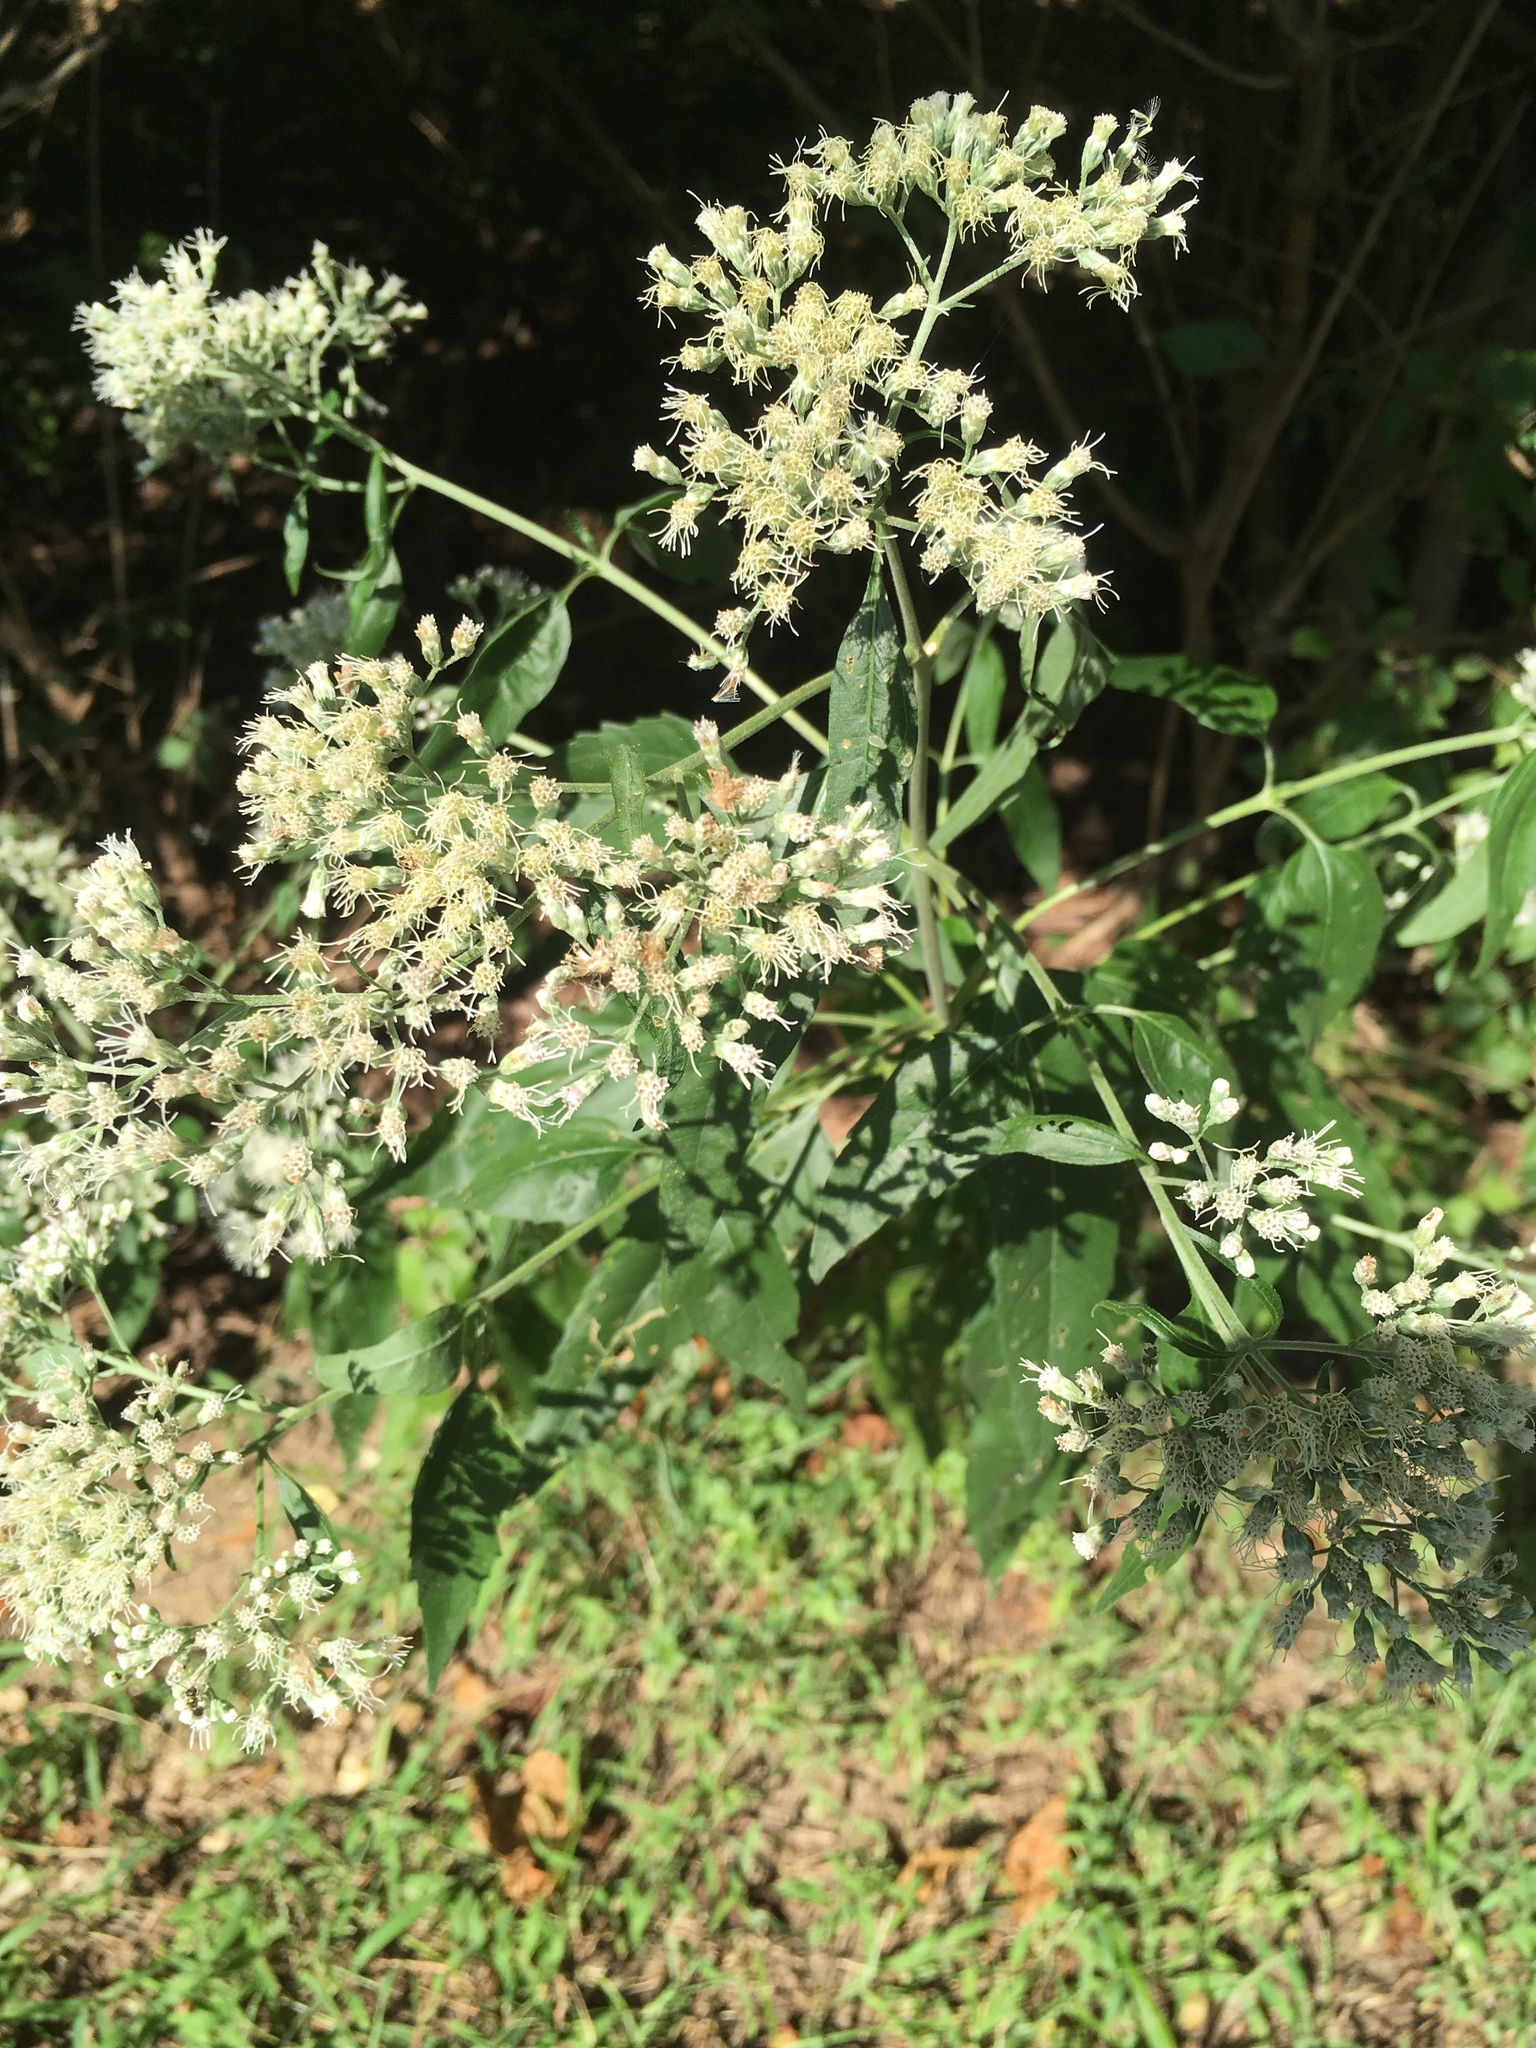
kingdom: Plantae
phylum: Tracheophyta
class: Magnoliopsida
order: Asterales
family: Asteraceae
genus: Eupatorium
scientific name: Eupatorium serotinum
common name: Late boneset
